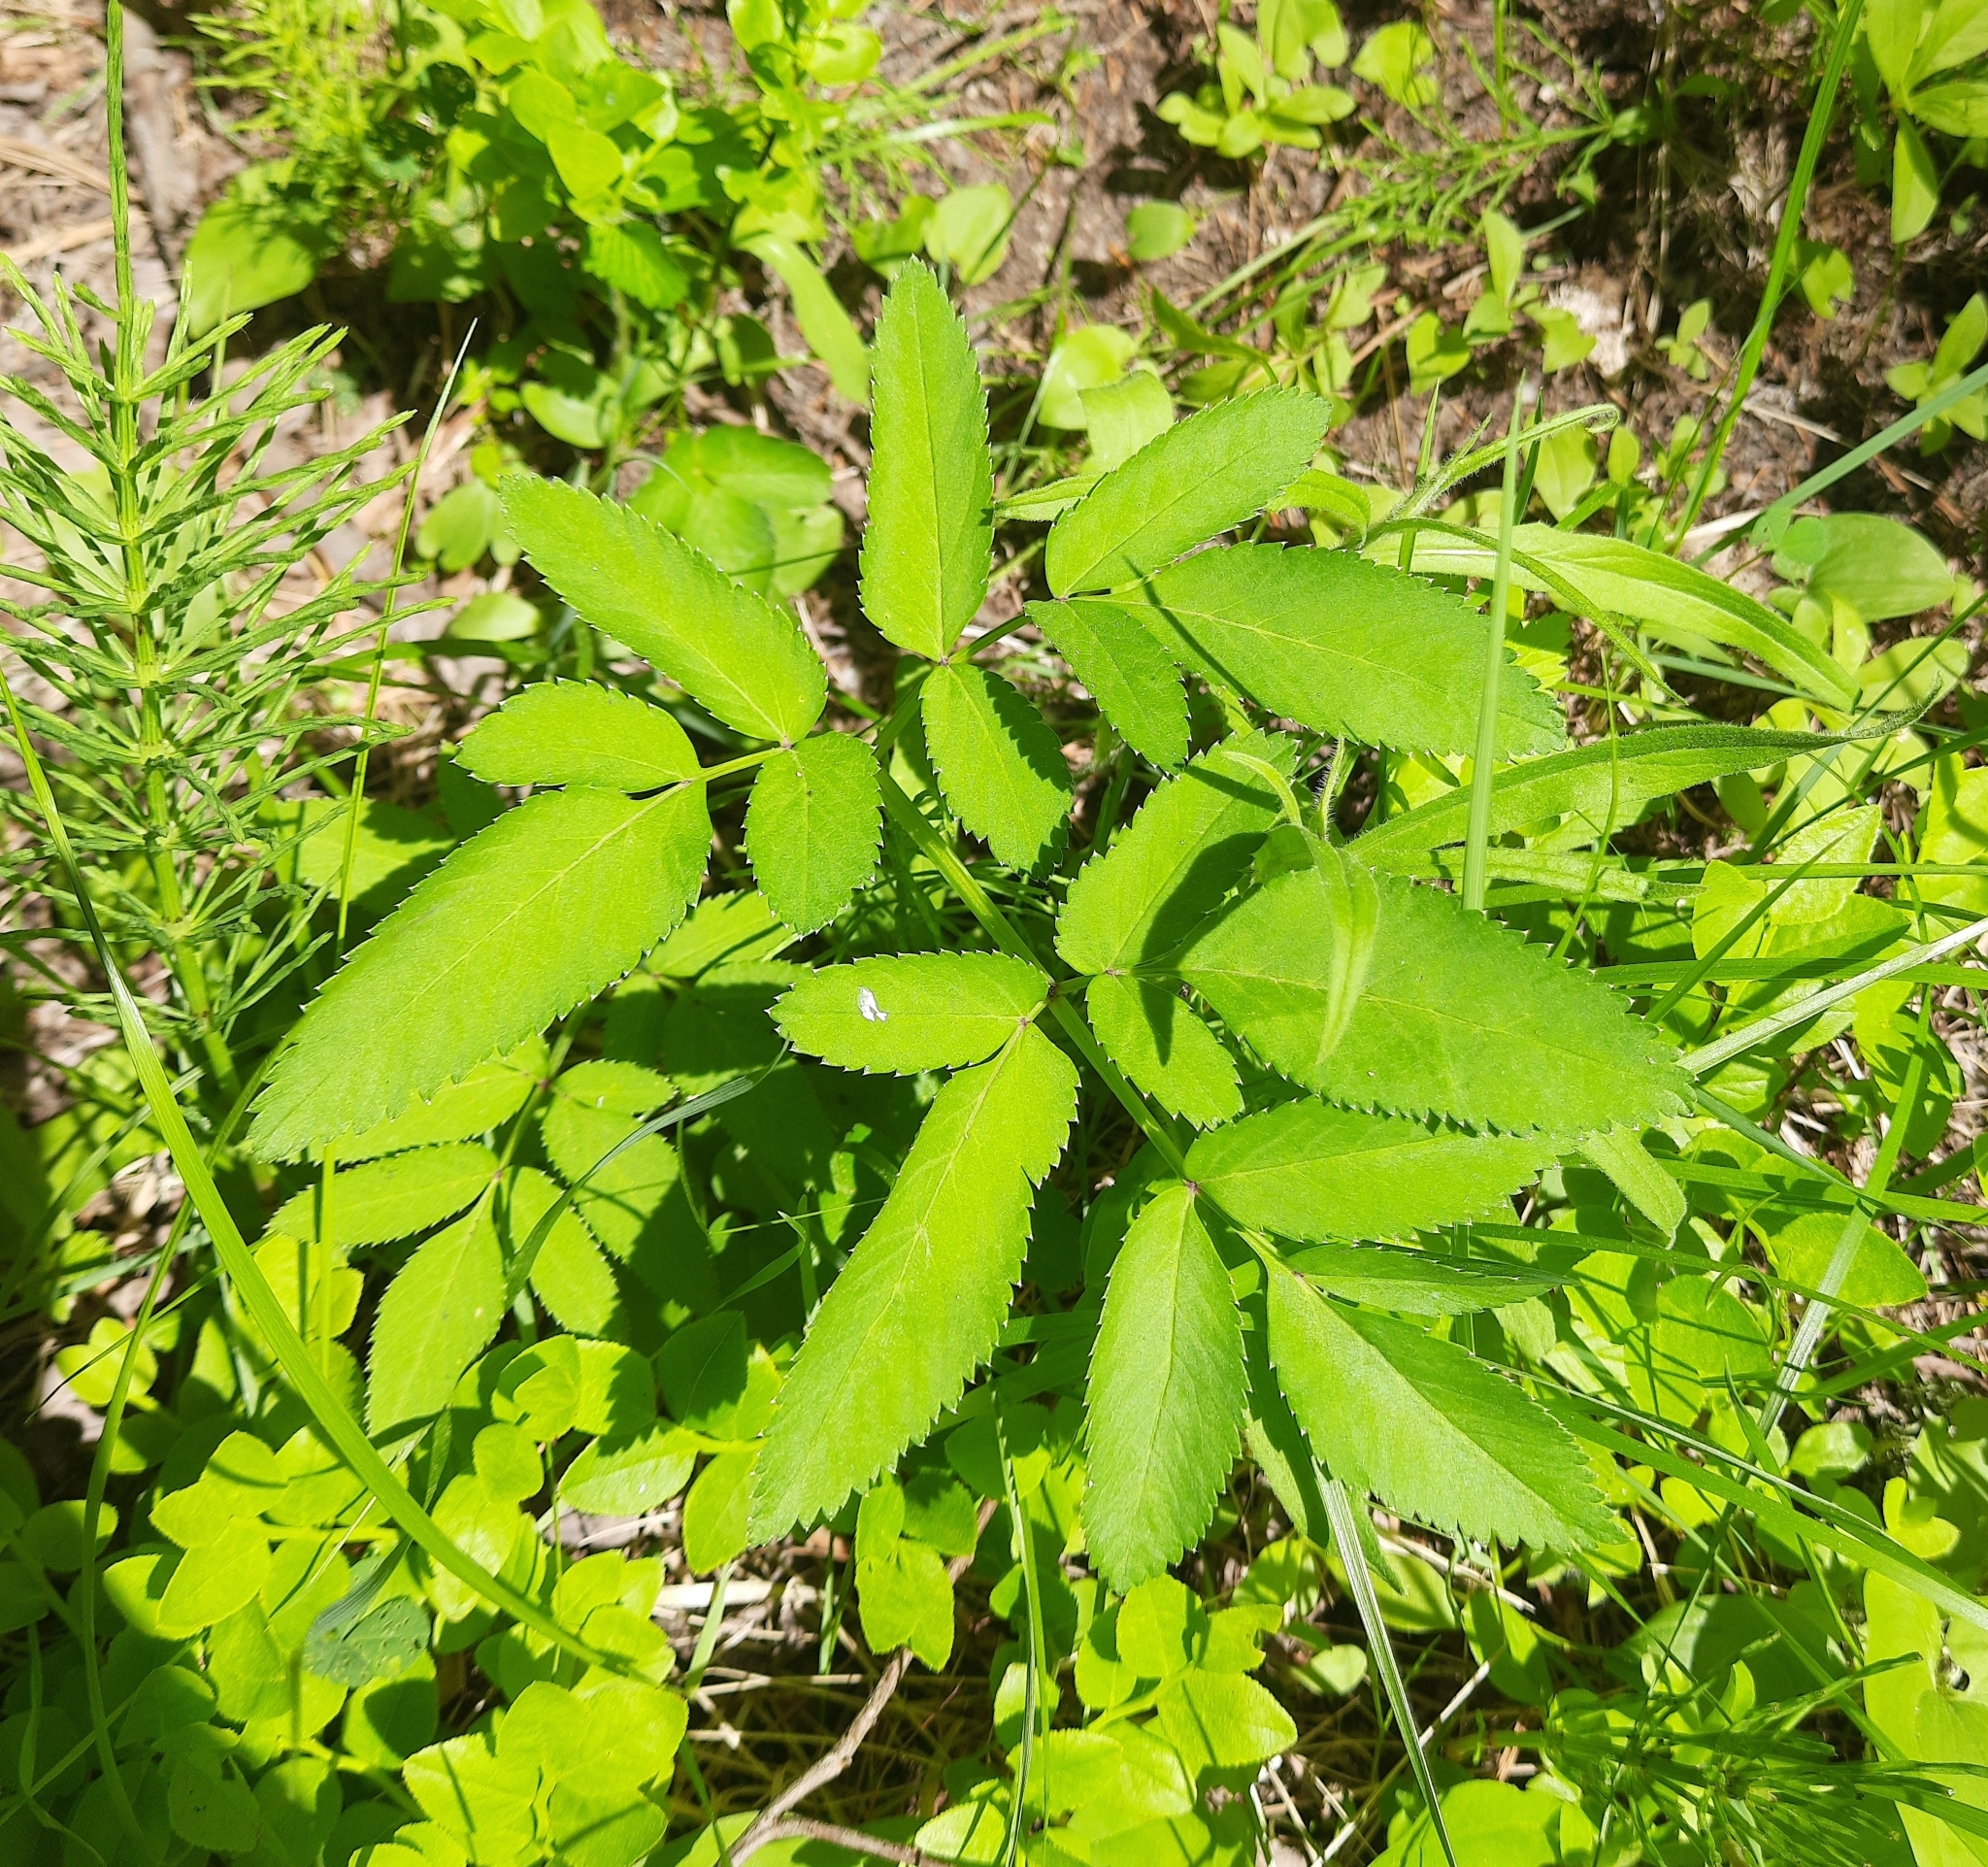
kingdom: Plantae
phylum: Tracheophyta
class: Magnoliopsida
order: Apiales
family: Apiaceae
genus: Angelica
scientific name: Angelica sylvestris
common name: Wild angelica
